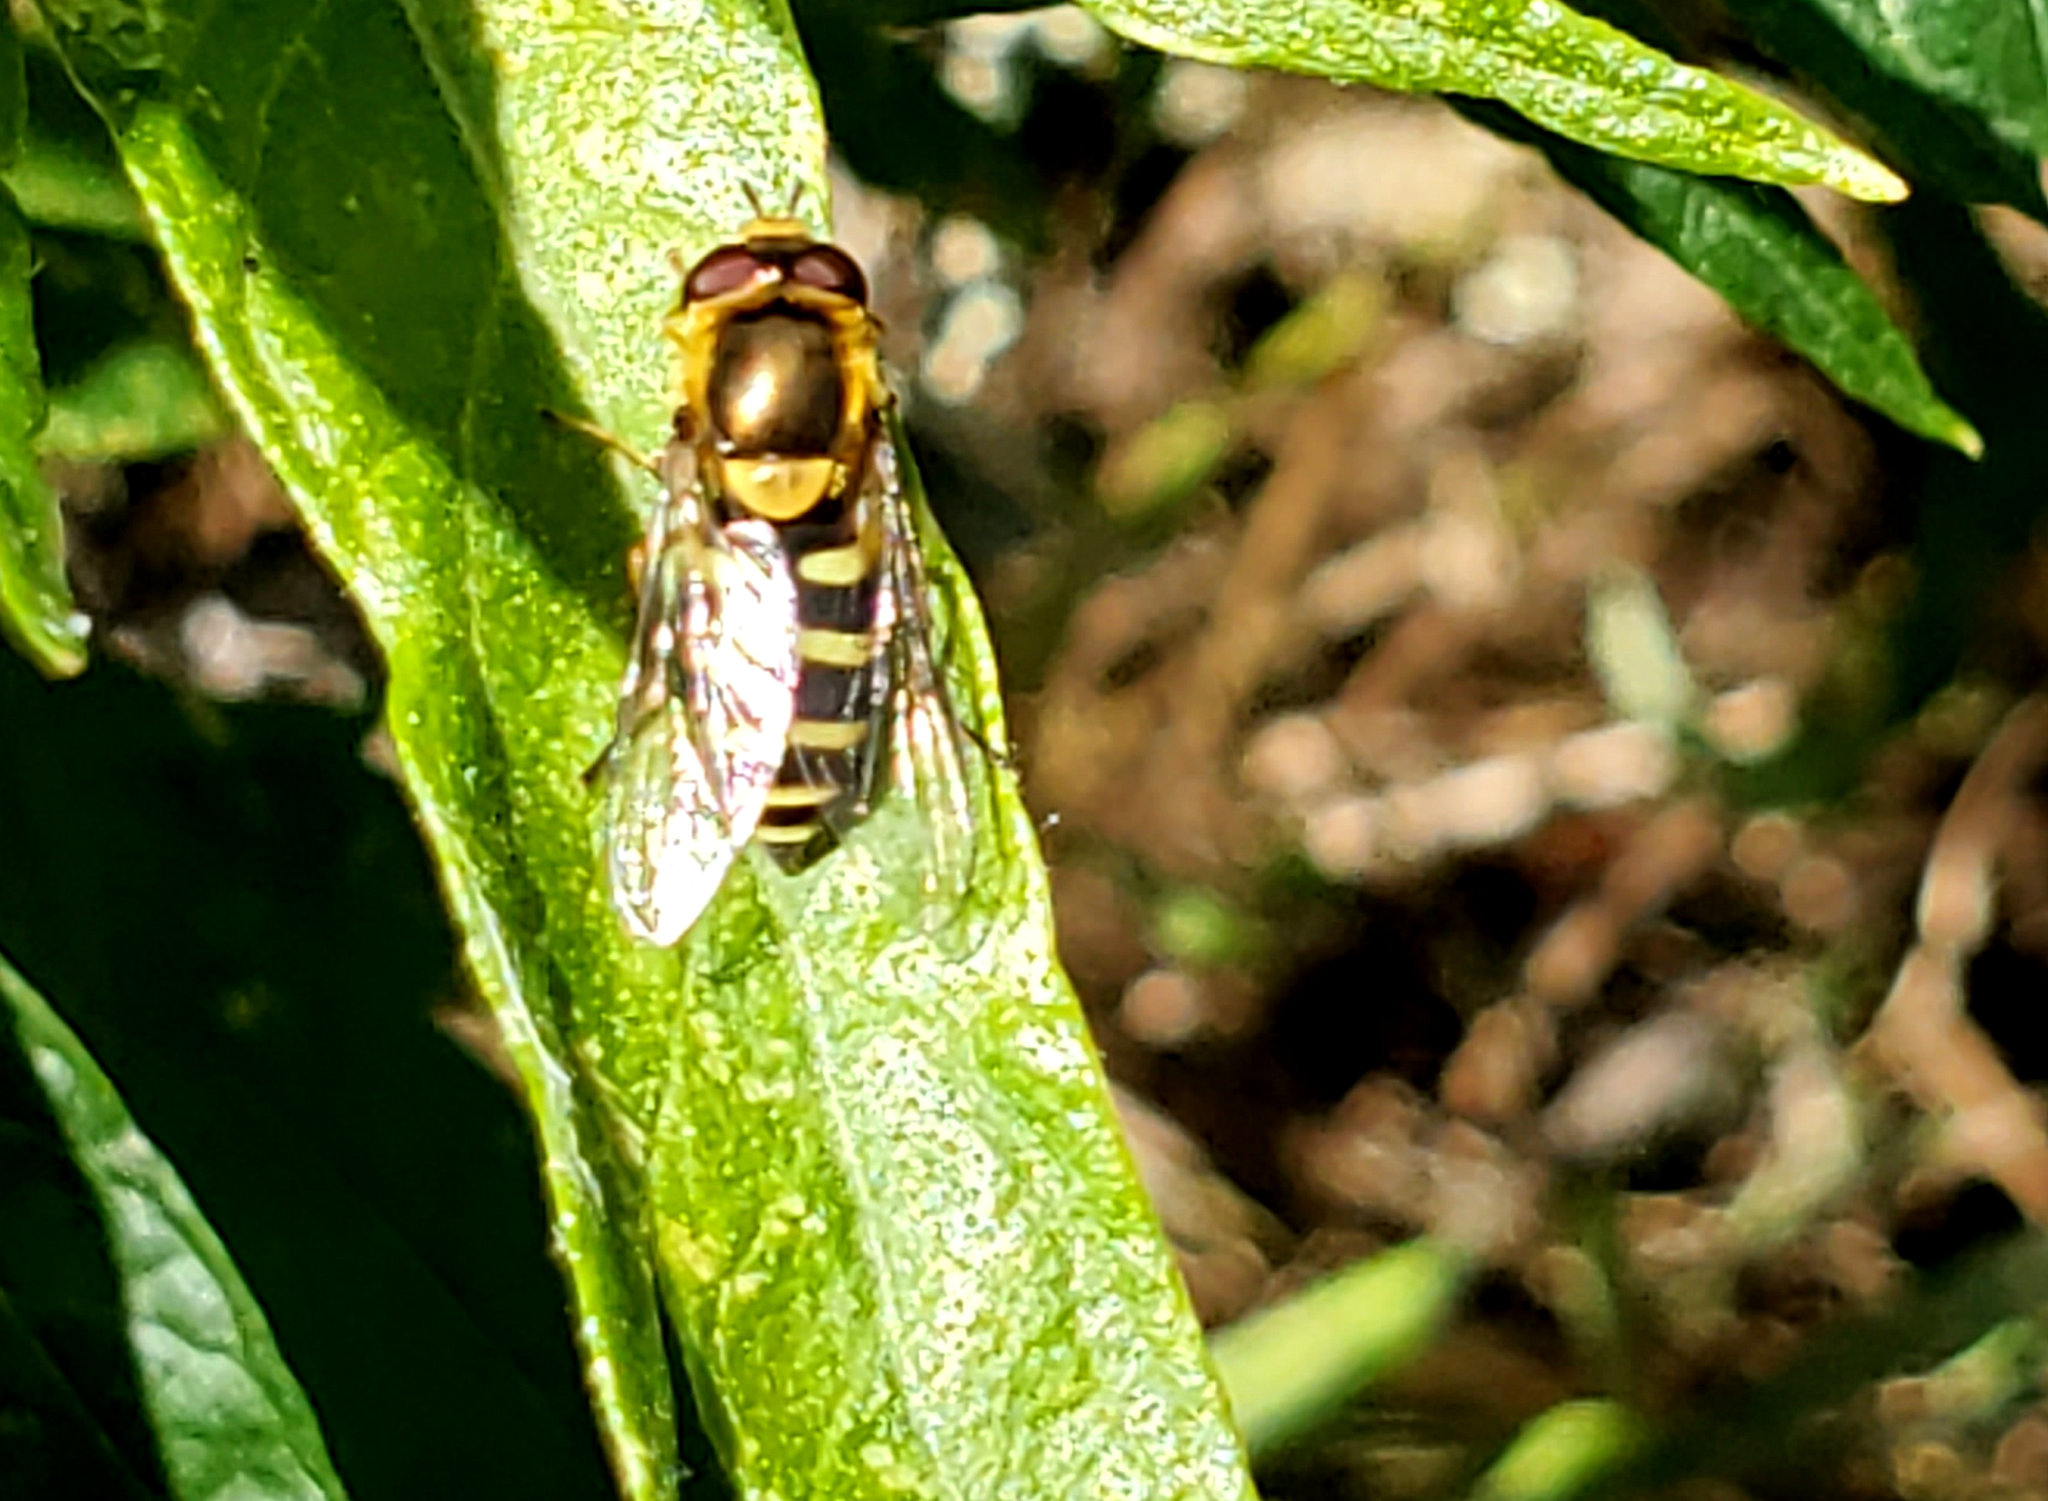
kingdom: Animalia
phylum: Arthropoda
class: Insecta
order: Diptera
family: Syrphidae
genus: Syrphus
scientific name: Syrphus opinator
